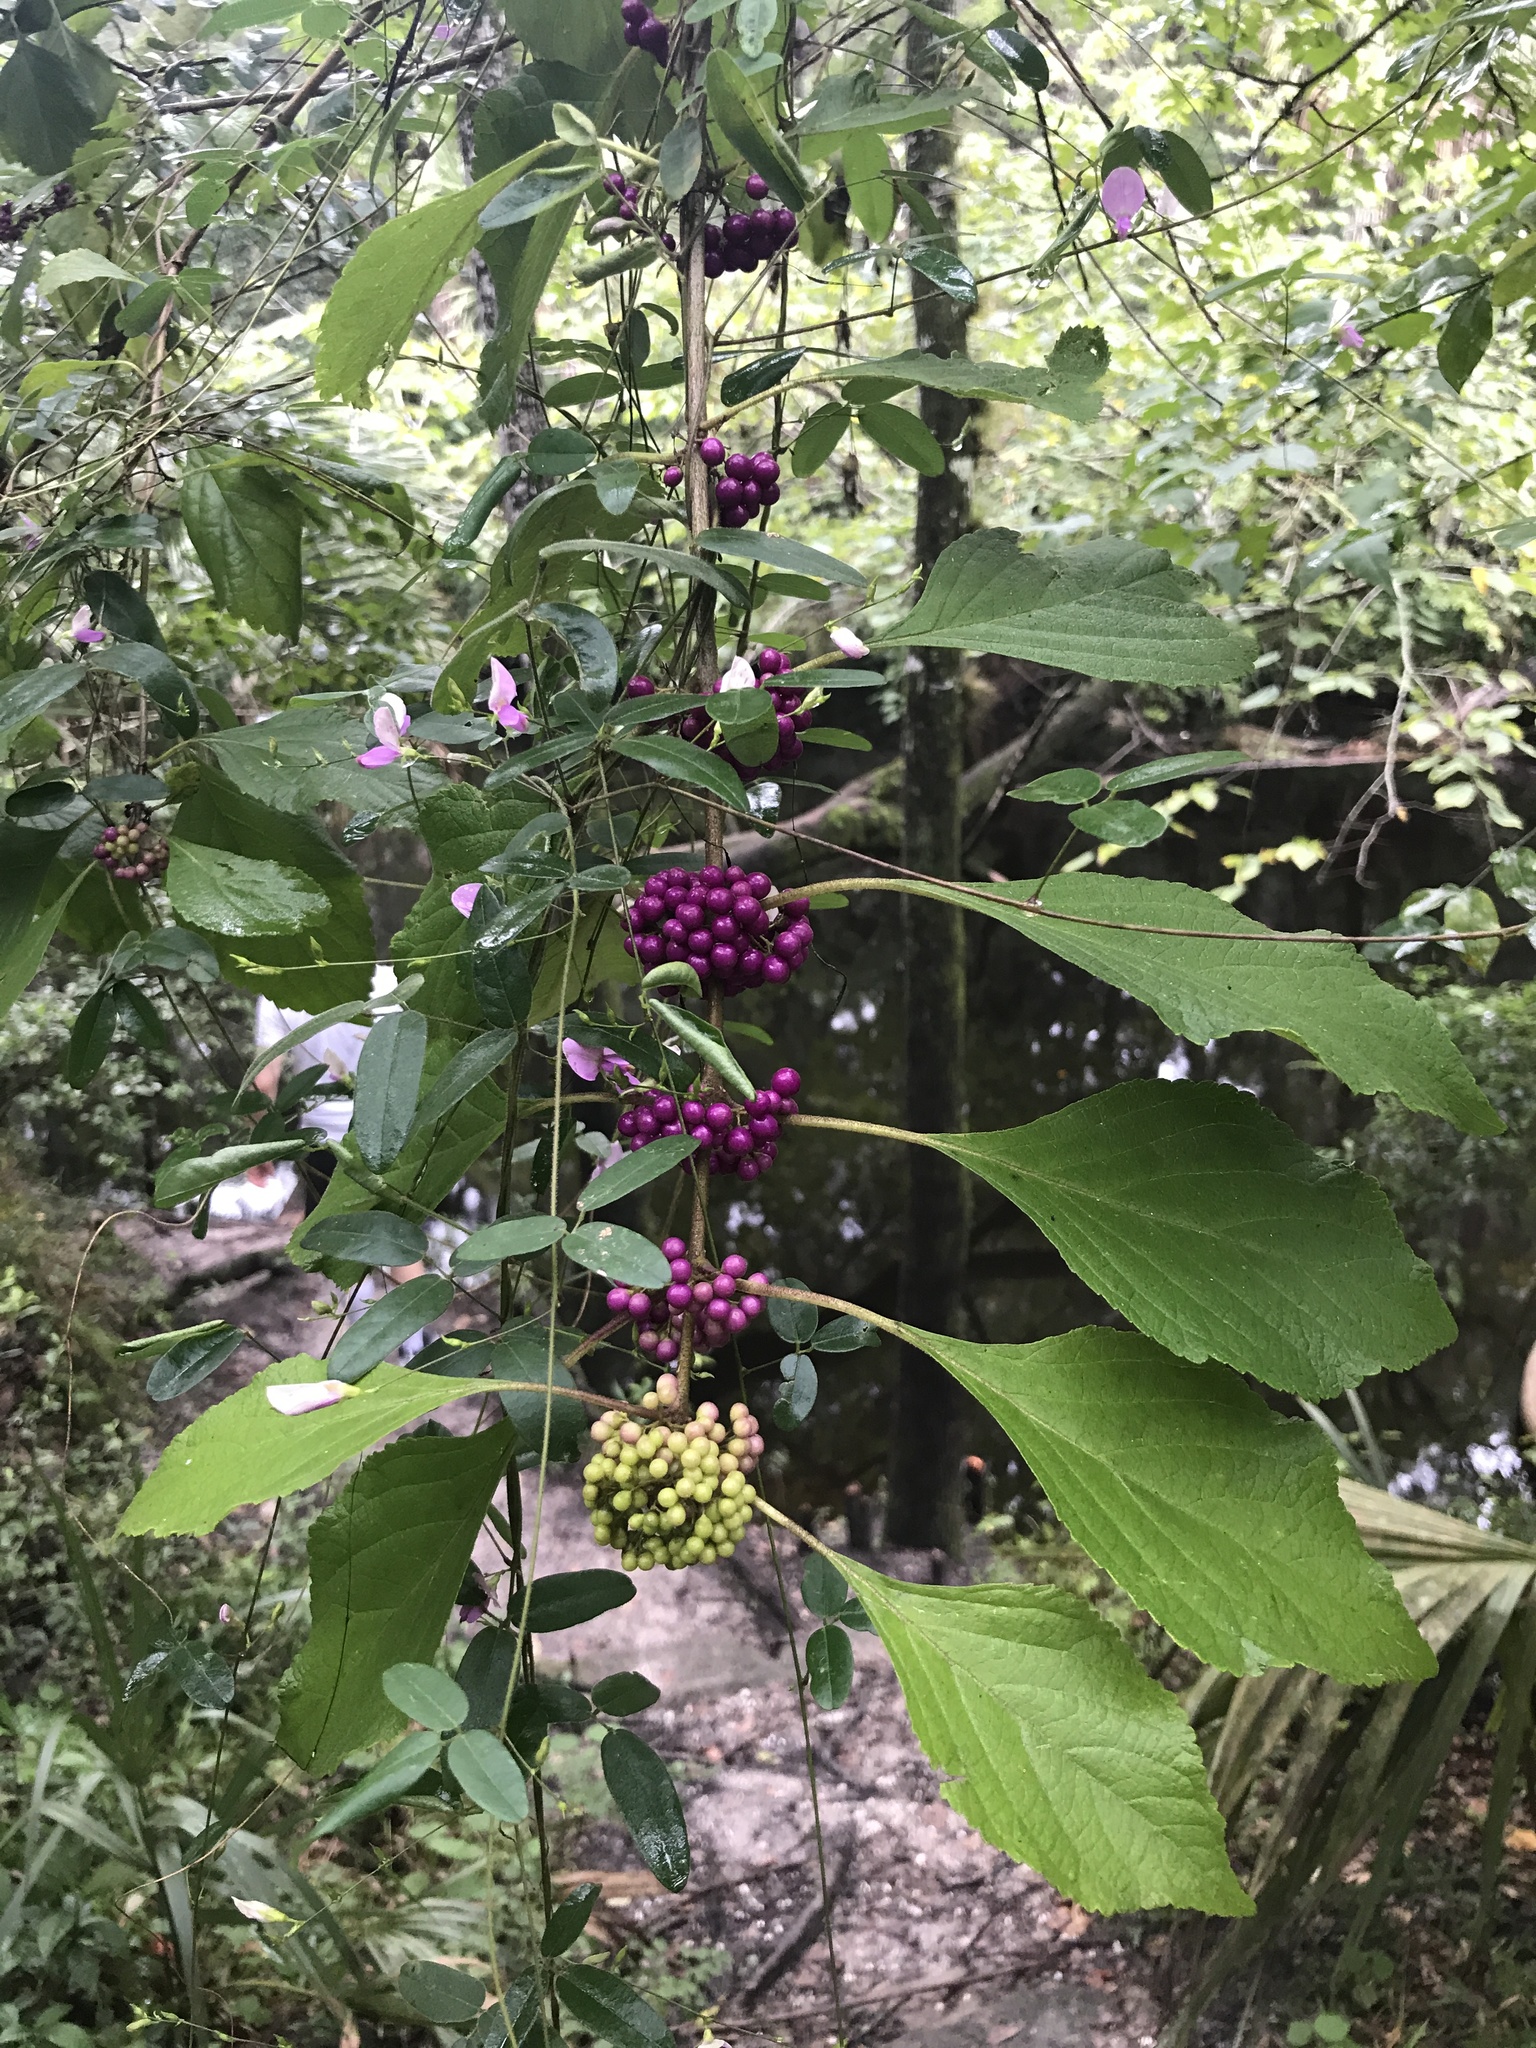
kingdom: Plantae
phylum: Tracheophyta
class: Magnoliopsida
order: Lamiales
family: Lamiaceae
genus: Callicarpa
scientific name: Callicarpa americana
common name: American beautyberry
